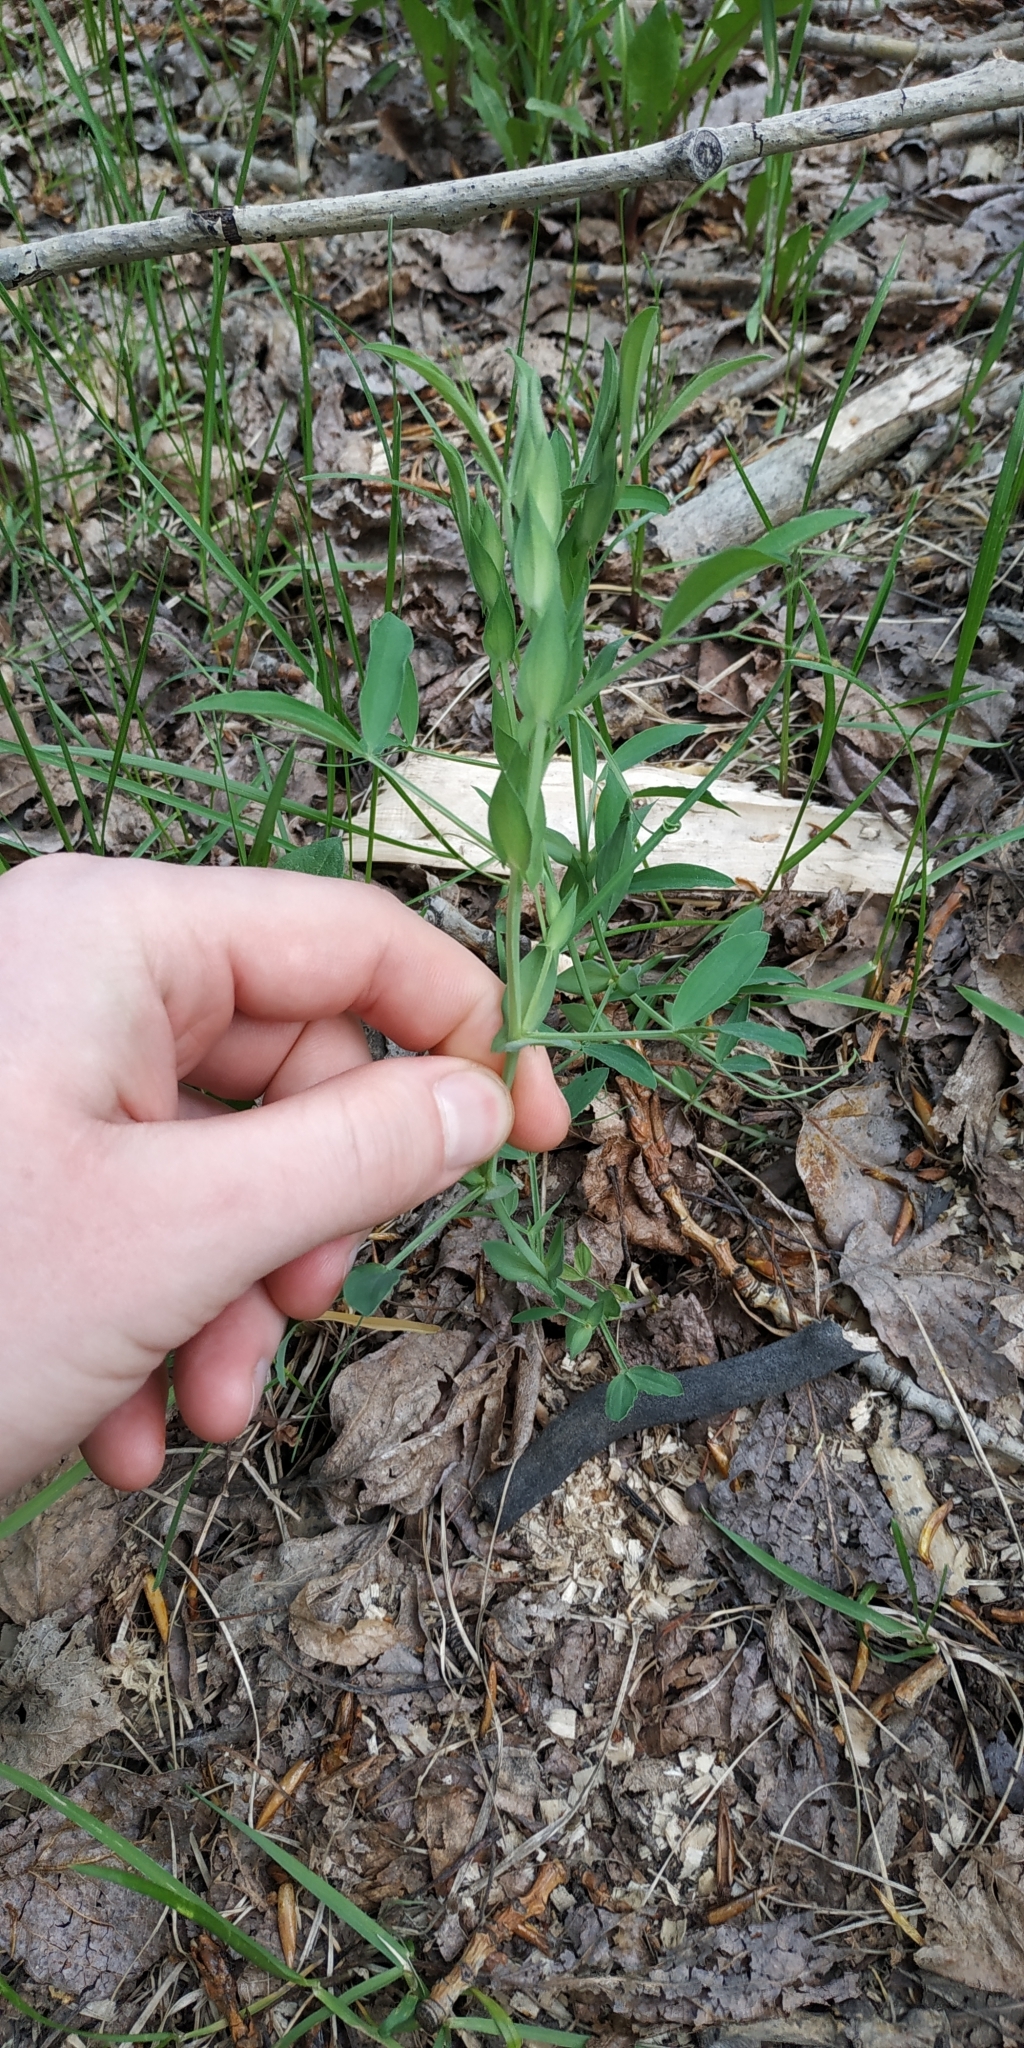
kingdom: Plantae
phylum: Tracheophyta
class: Magnoliopsida
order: Fabales
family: Fabaceae
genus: Lathyrus
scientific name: Lathyrus pratensis
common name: Meadow vetchling
